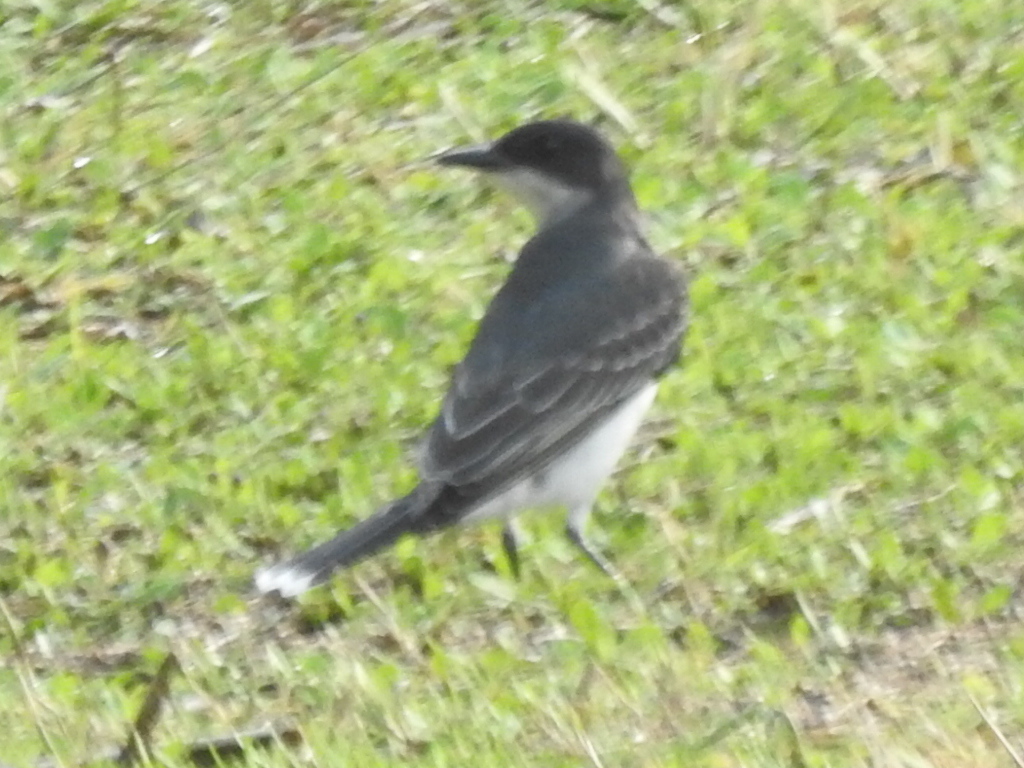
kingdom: Animalia
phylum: Chordata
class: Aves
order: Passeriformes
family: Tyrannidae
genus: Tyrannus
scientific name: Tyrannus tyrannus
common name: Eastern kingbird
